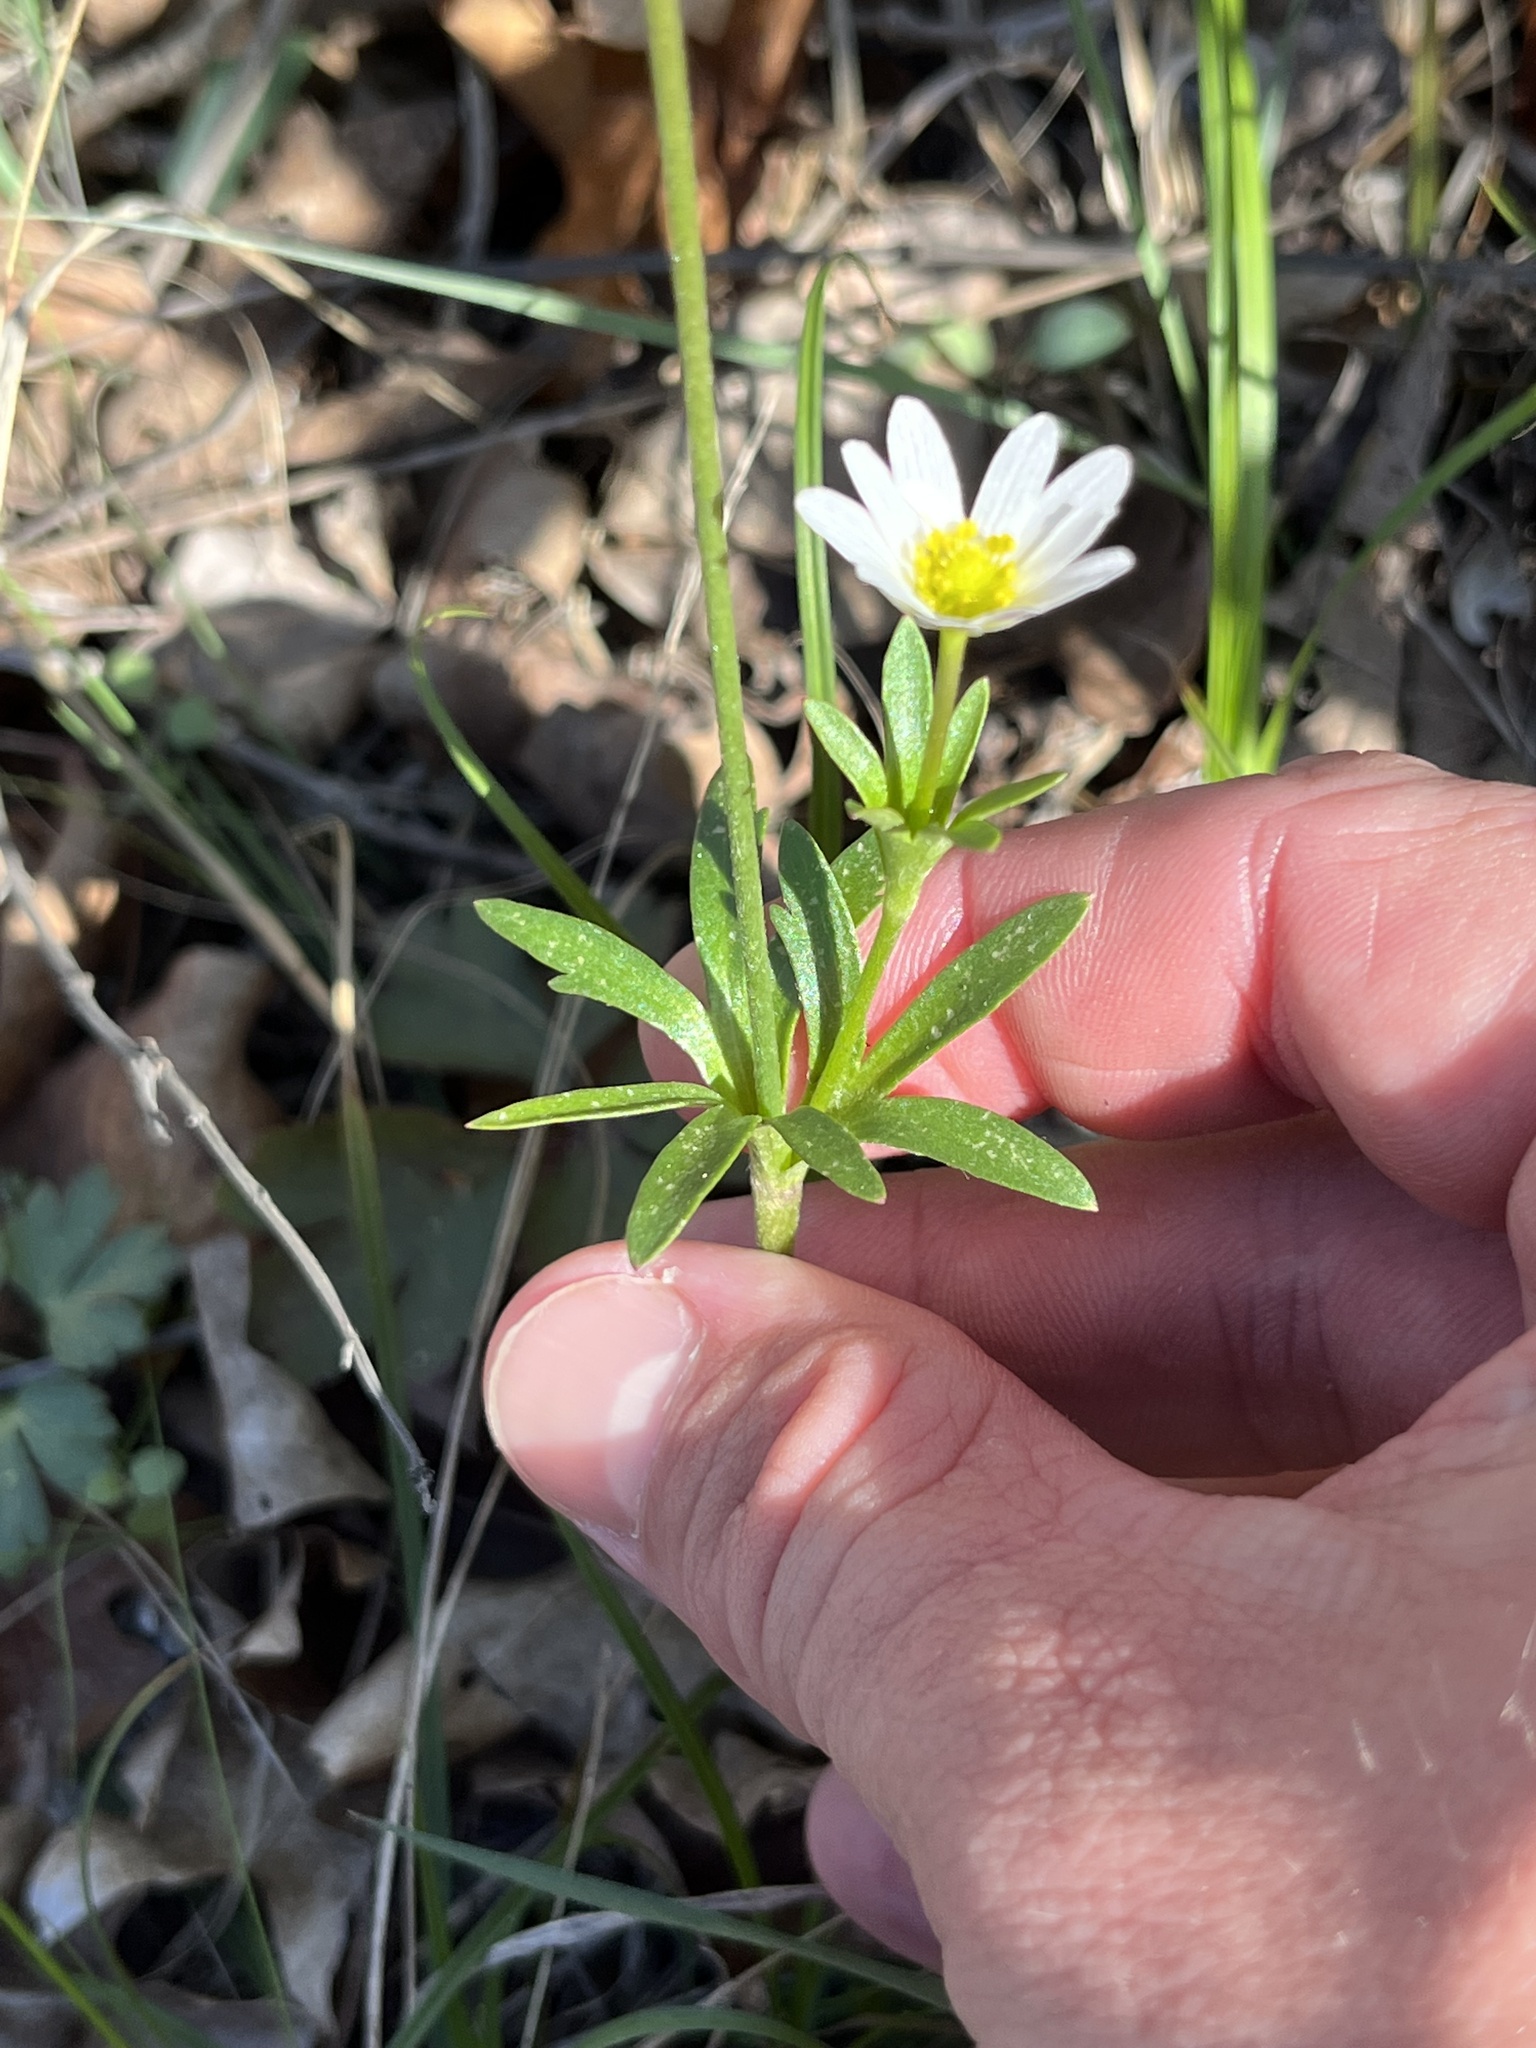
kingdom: Plantae
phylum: Tracheophyta
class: Magnoliopsida
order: Ranunculales
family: Ranunculaceae
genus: Anemone
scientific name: Anemone edwardsiana
